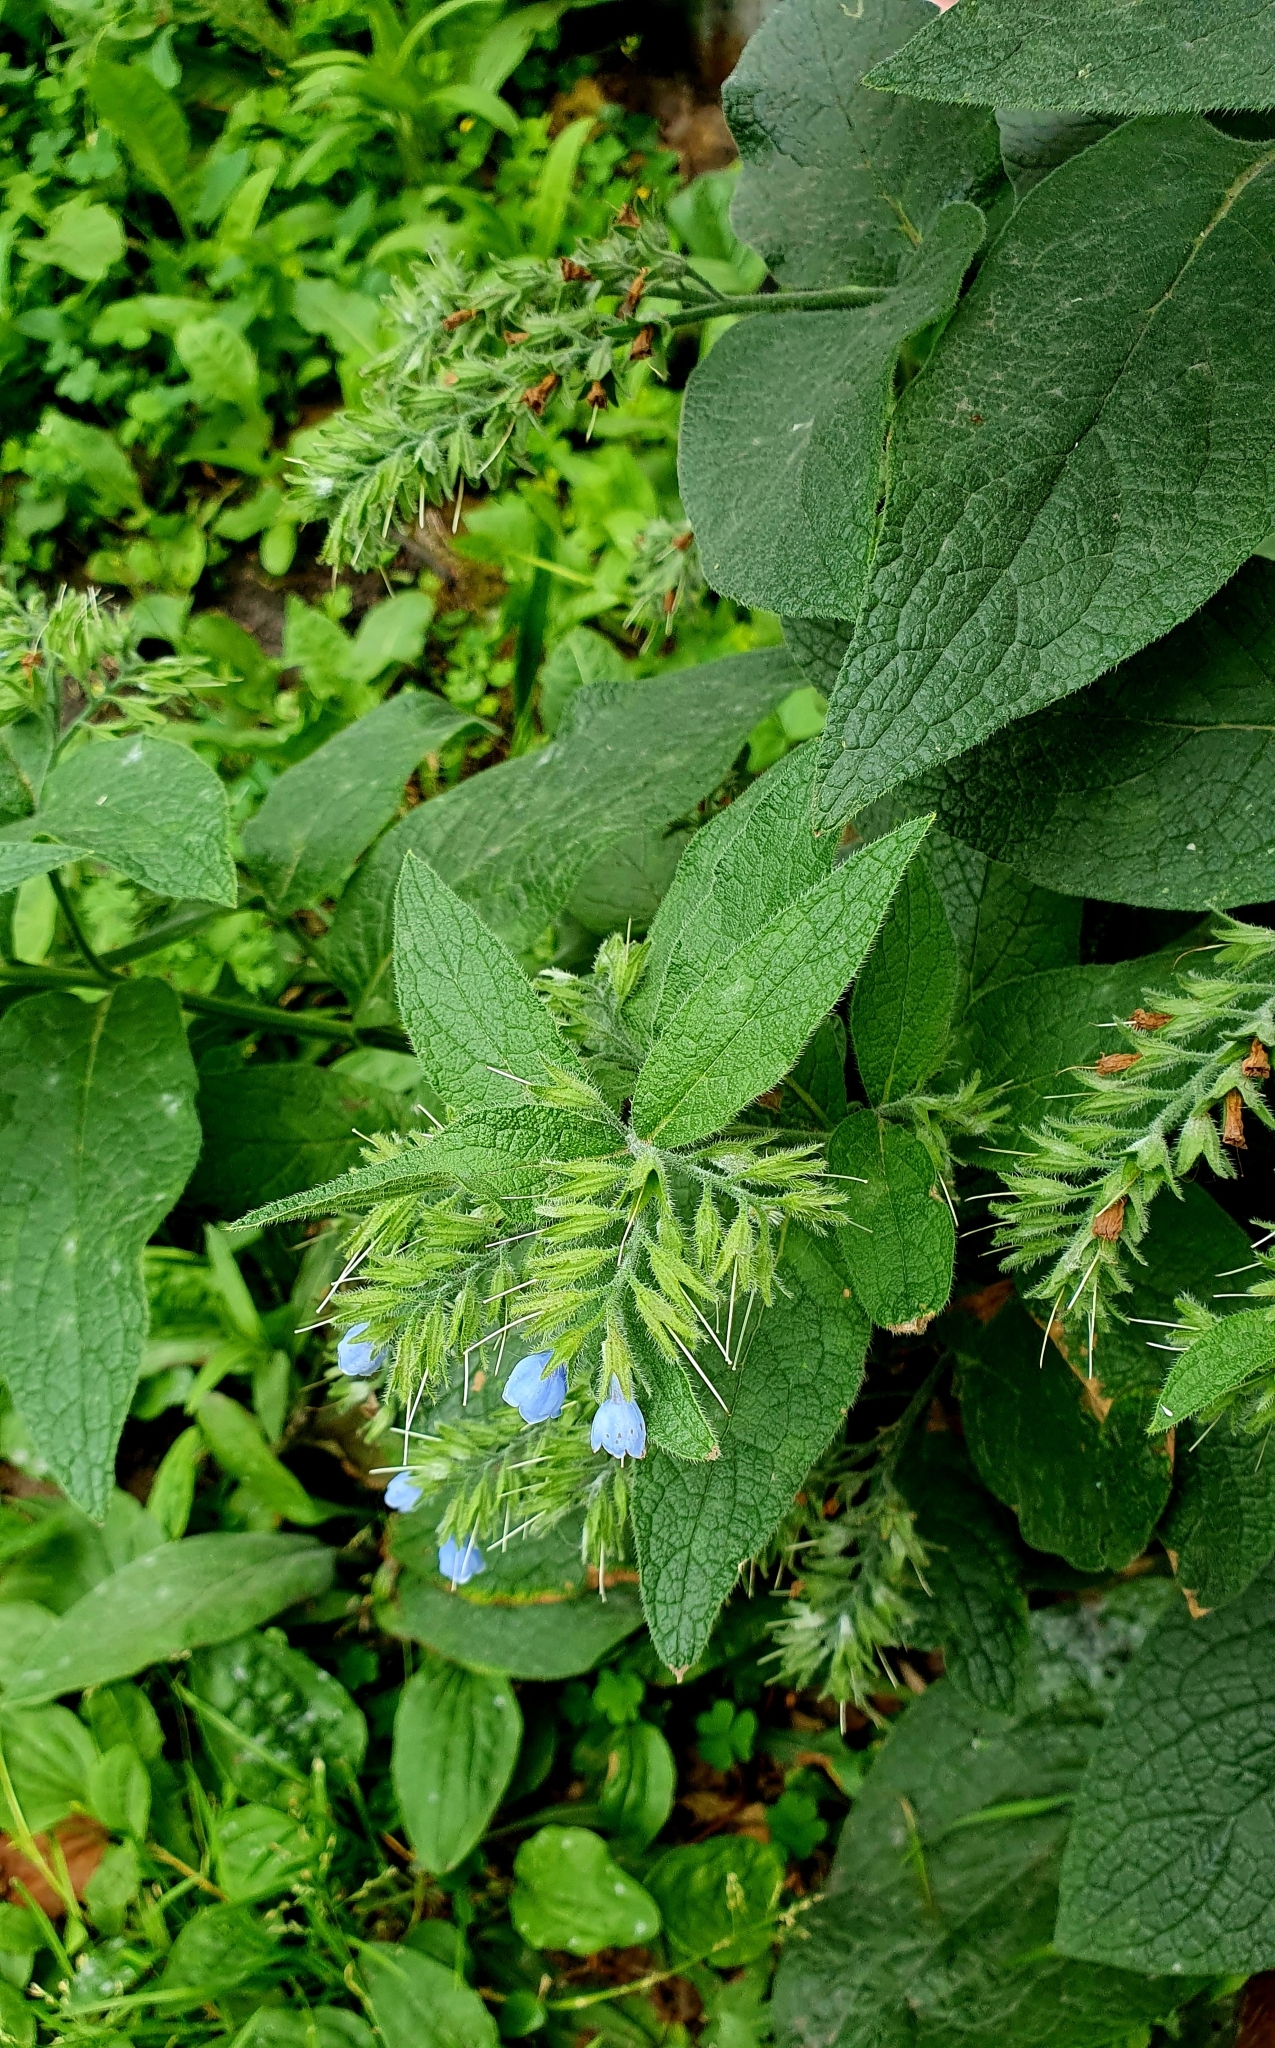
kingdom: Plantae
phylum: Tracheophyta
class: Magnoliopsida
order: Boraginales
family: Boraginaceae
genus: Symphytum
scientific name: Symphytum caucasicum
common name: Caucasian comfrey
